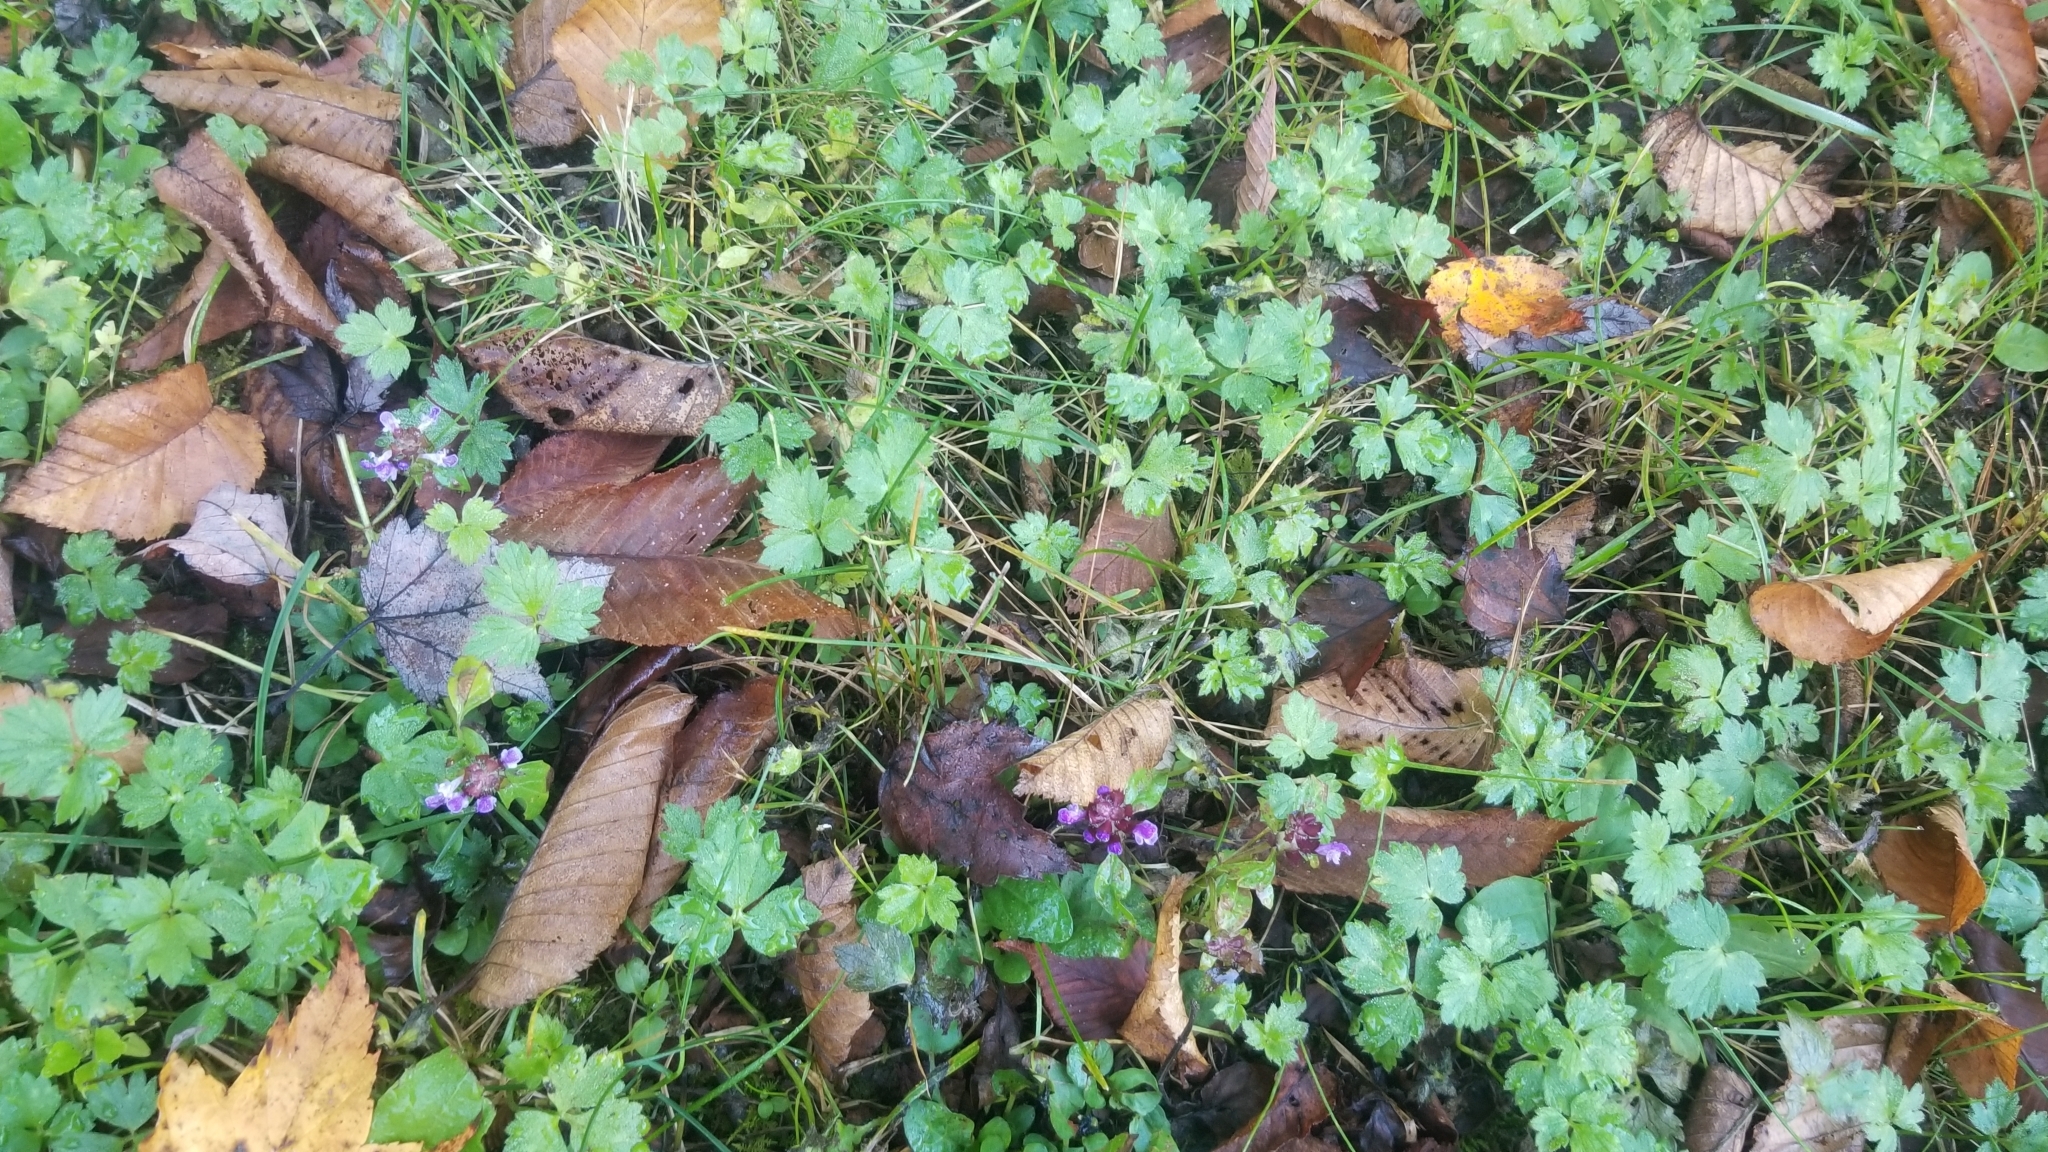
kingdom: Plantae
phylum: Tracheophyta
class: Magnoliopsida
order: Lamiales
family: Lamiaceae
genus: Prunella
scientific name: Prunella vulgaris
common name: Heal-all
